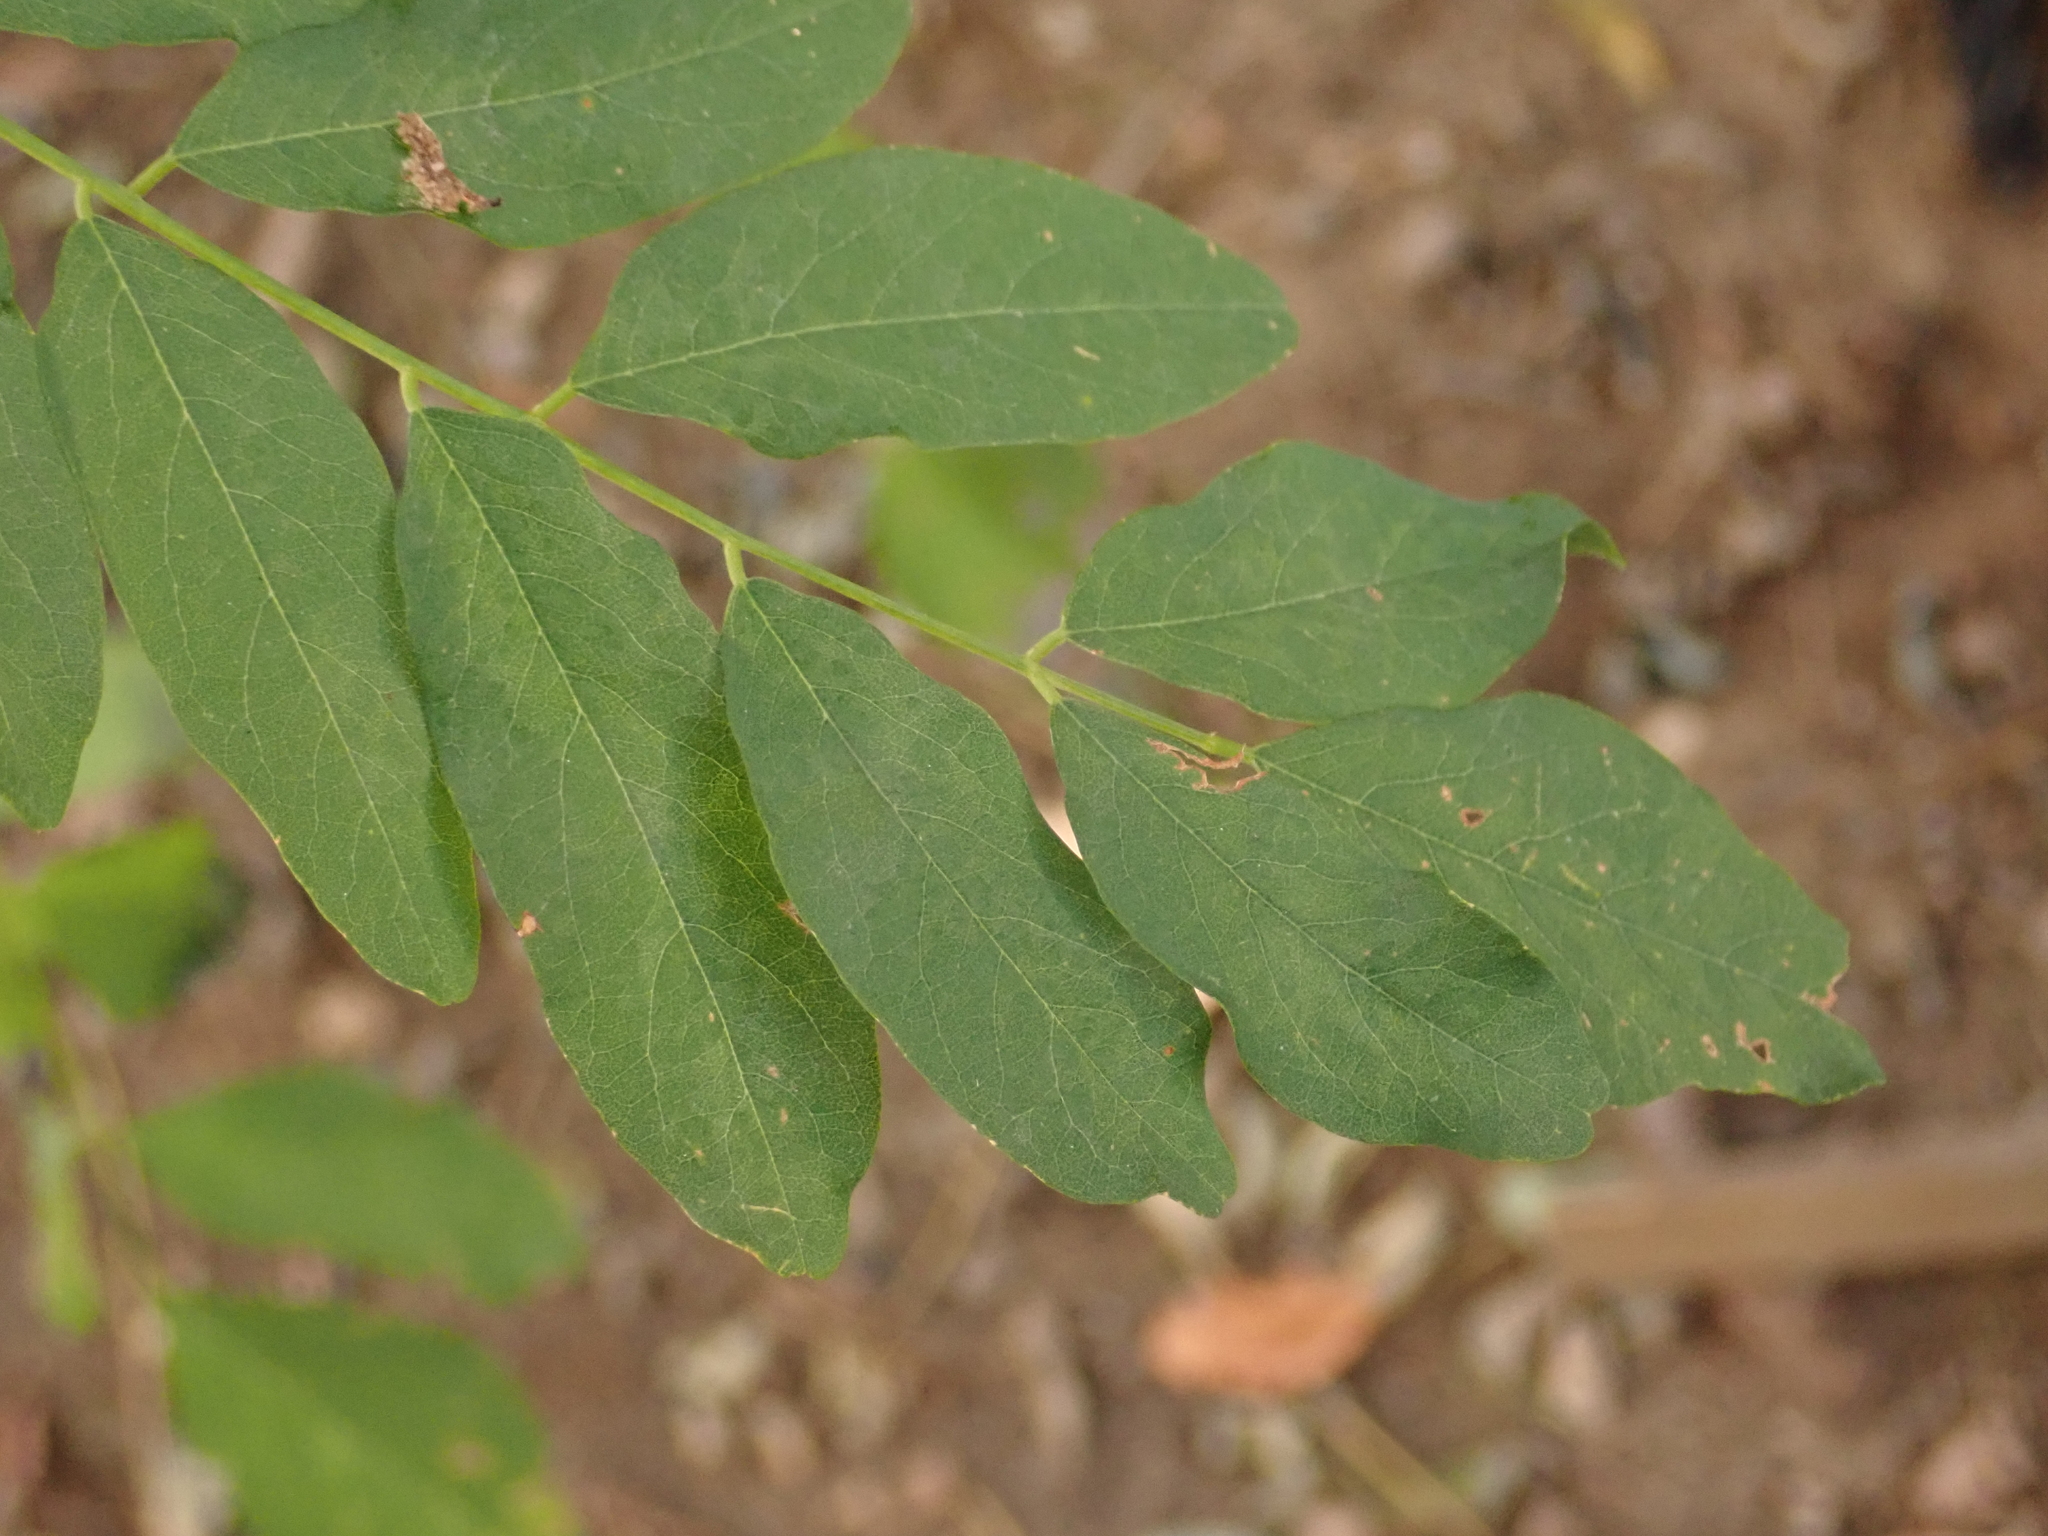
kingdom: Plantae
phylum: Tracheophyta
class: Magnoliopsida
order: Fabales
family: Fabaceae
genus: Robinia
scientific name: Robinia pseudoacacia
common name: Black locust
